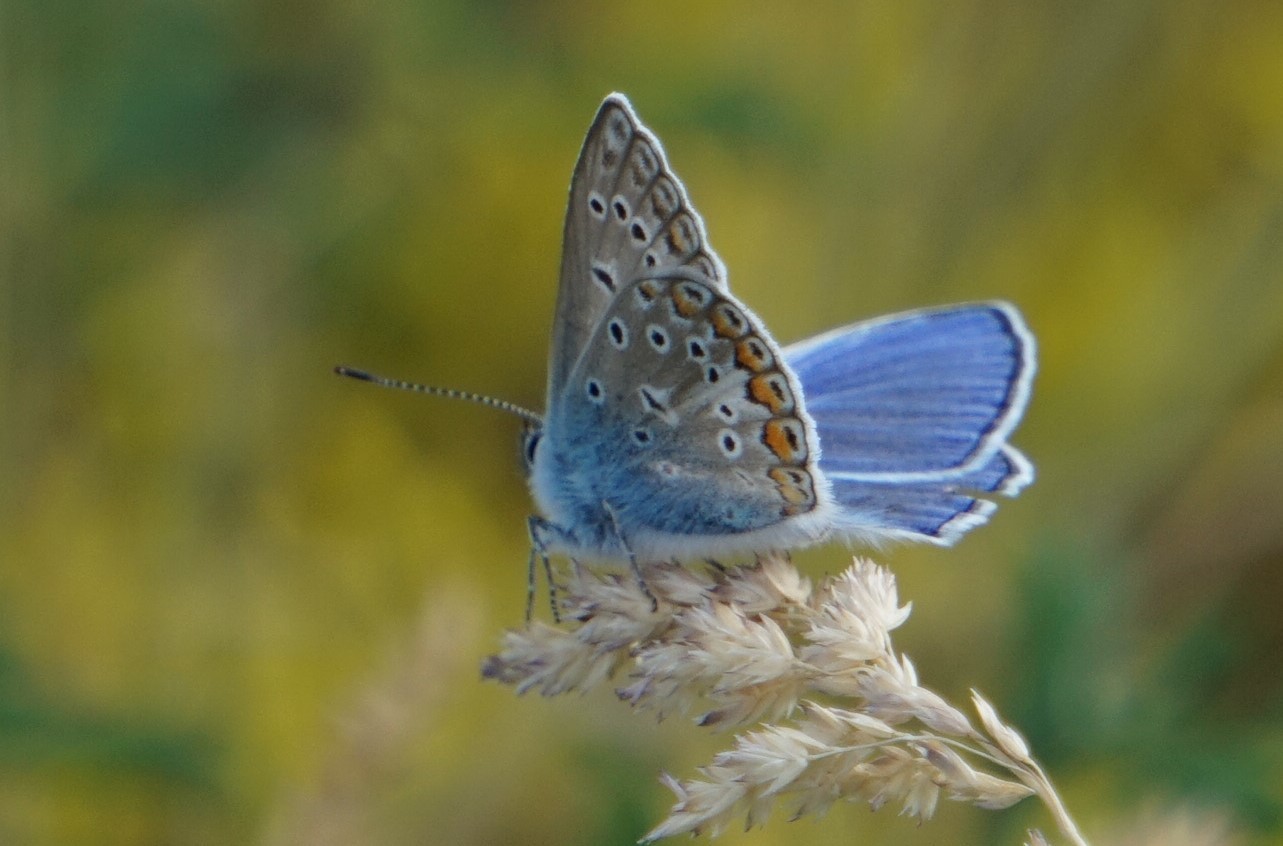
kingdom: Animalia
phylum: Arthropoda
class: Insecta
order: Lepidoptera
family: Lycaenidae
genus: Polyommatus
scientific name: Polyommatus icarus
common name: Common blue
